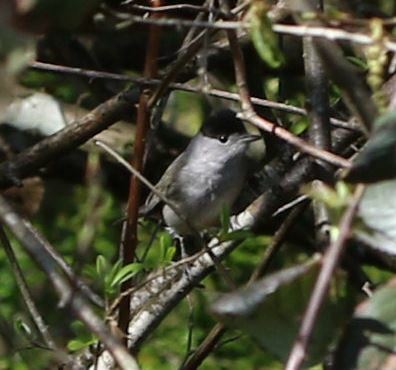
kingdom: Animalia
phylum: Chordata
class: Aves
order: Passeriformes
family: Sylviidae
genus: Sylvia
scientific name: Sylvia atricapilla
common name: Eurasian blackcap
